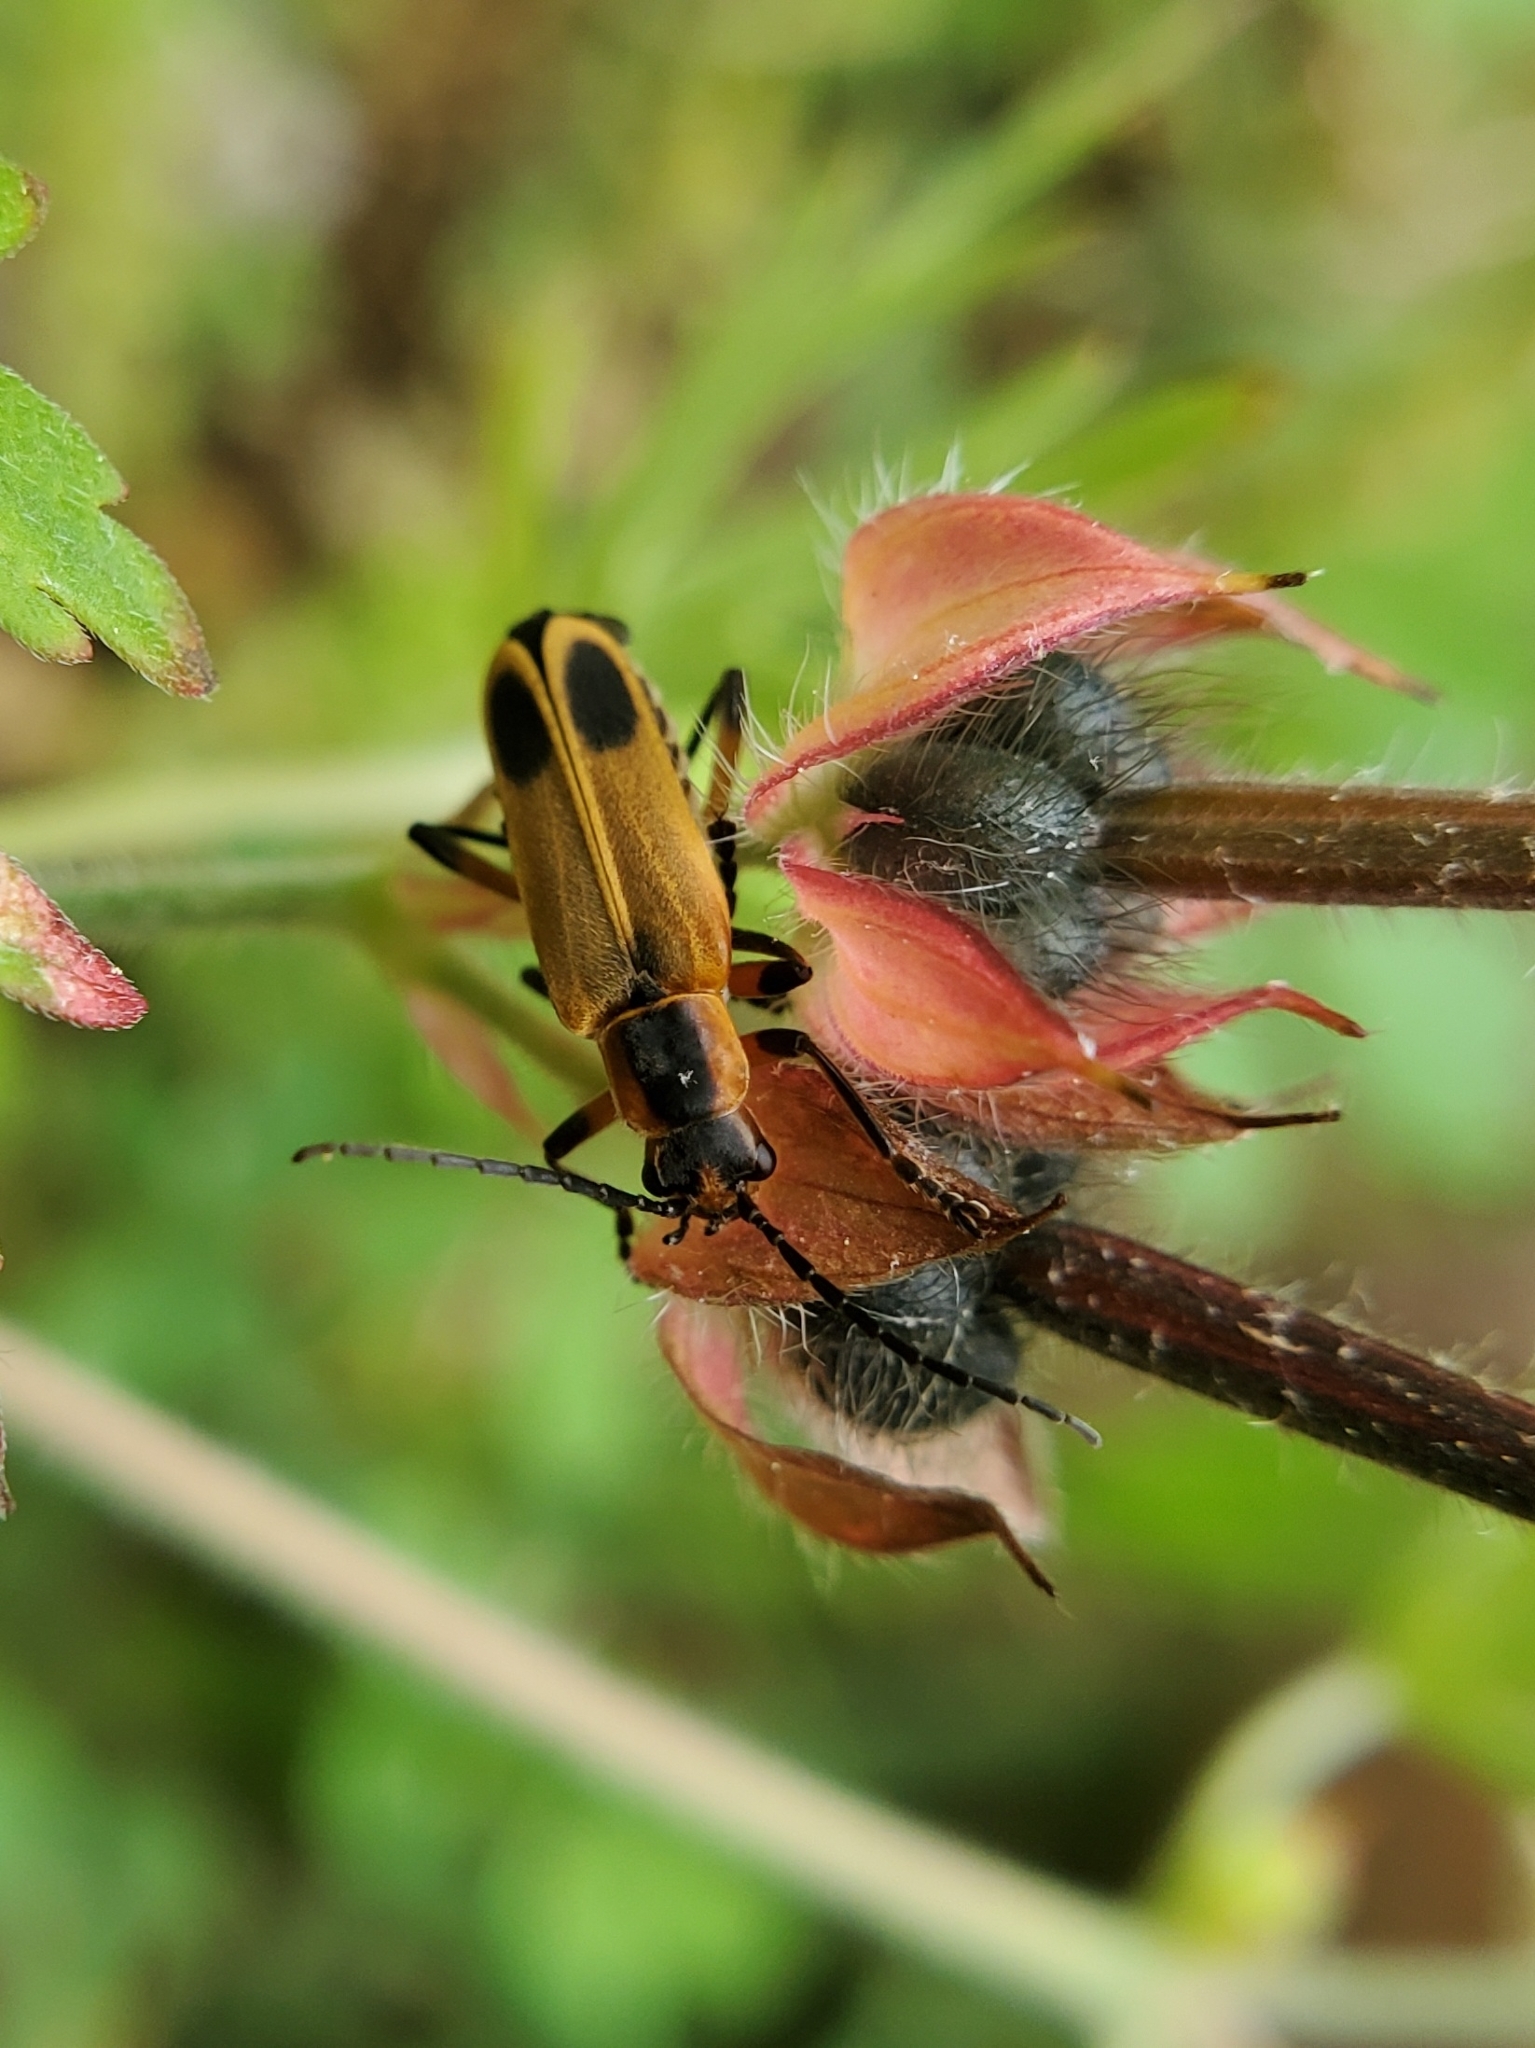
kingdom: Animalia
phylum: Arthropoda
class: Insecta
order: Coleoptera
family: Cantharidae
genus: Chauliognathus
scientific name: Chauliognathus marginatus
